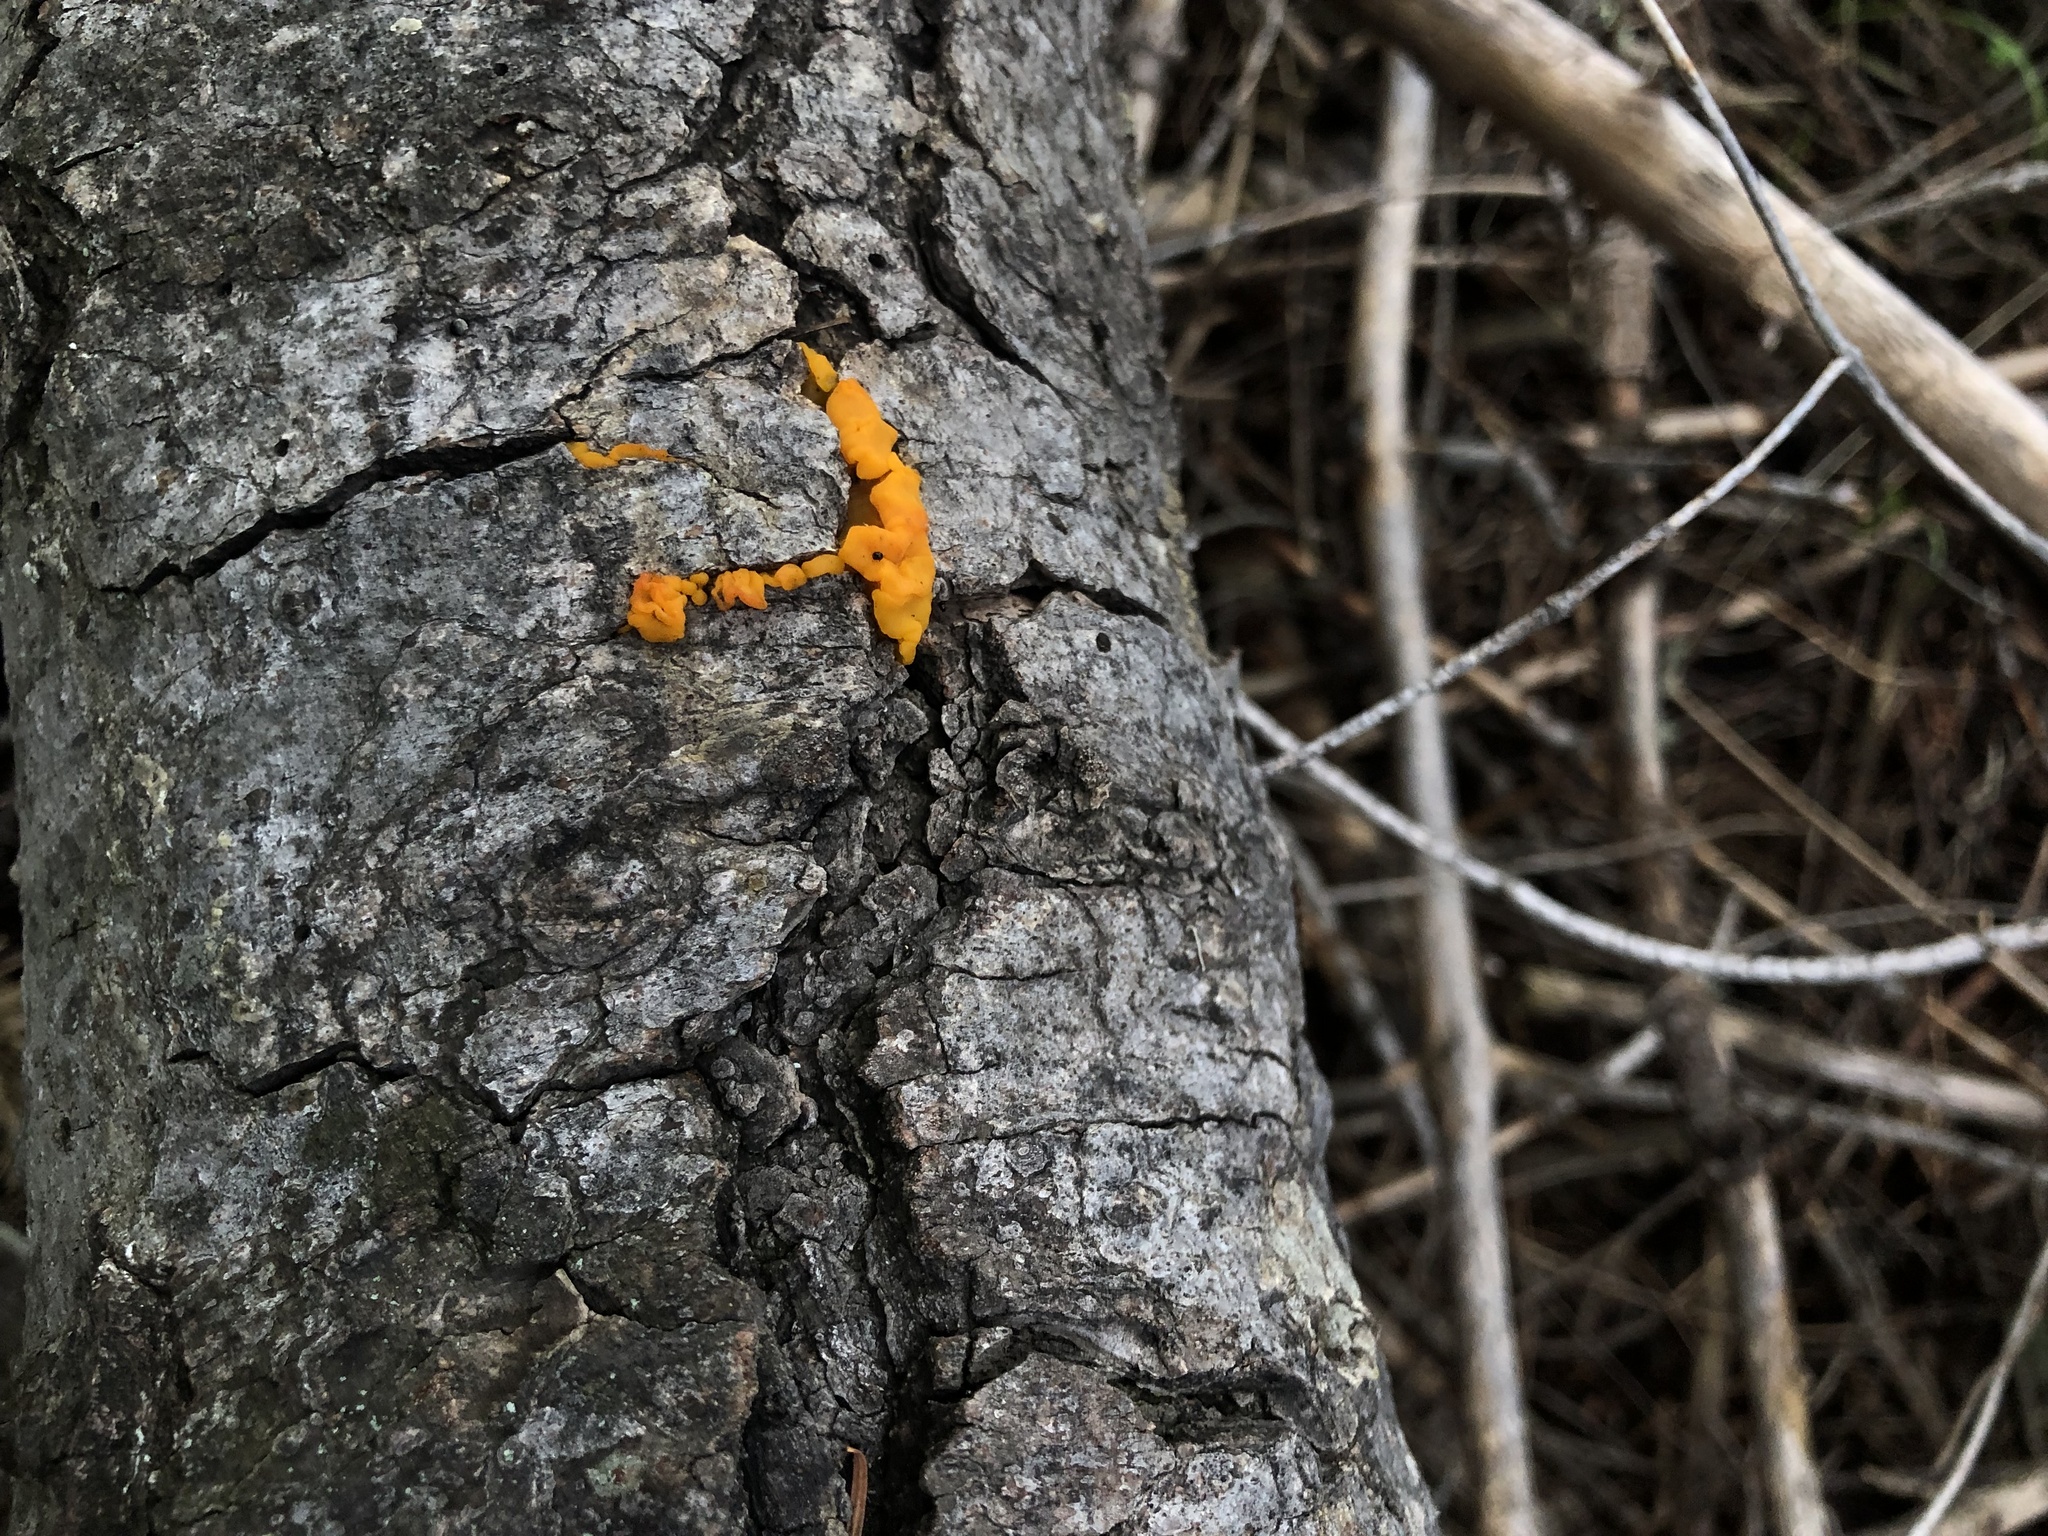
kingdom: Fungi
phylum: Basidiomycota
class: Dacrymycetes
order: Dacrymycetales
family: Dacrymycetaceae
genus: Dacrymyces
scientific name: Dacrymyces dictyosporus
